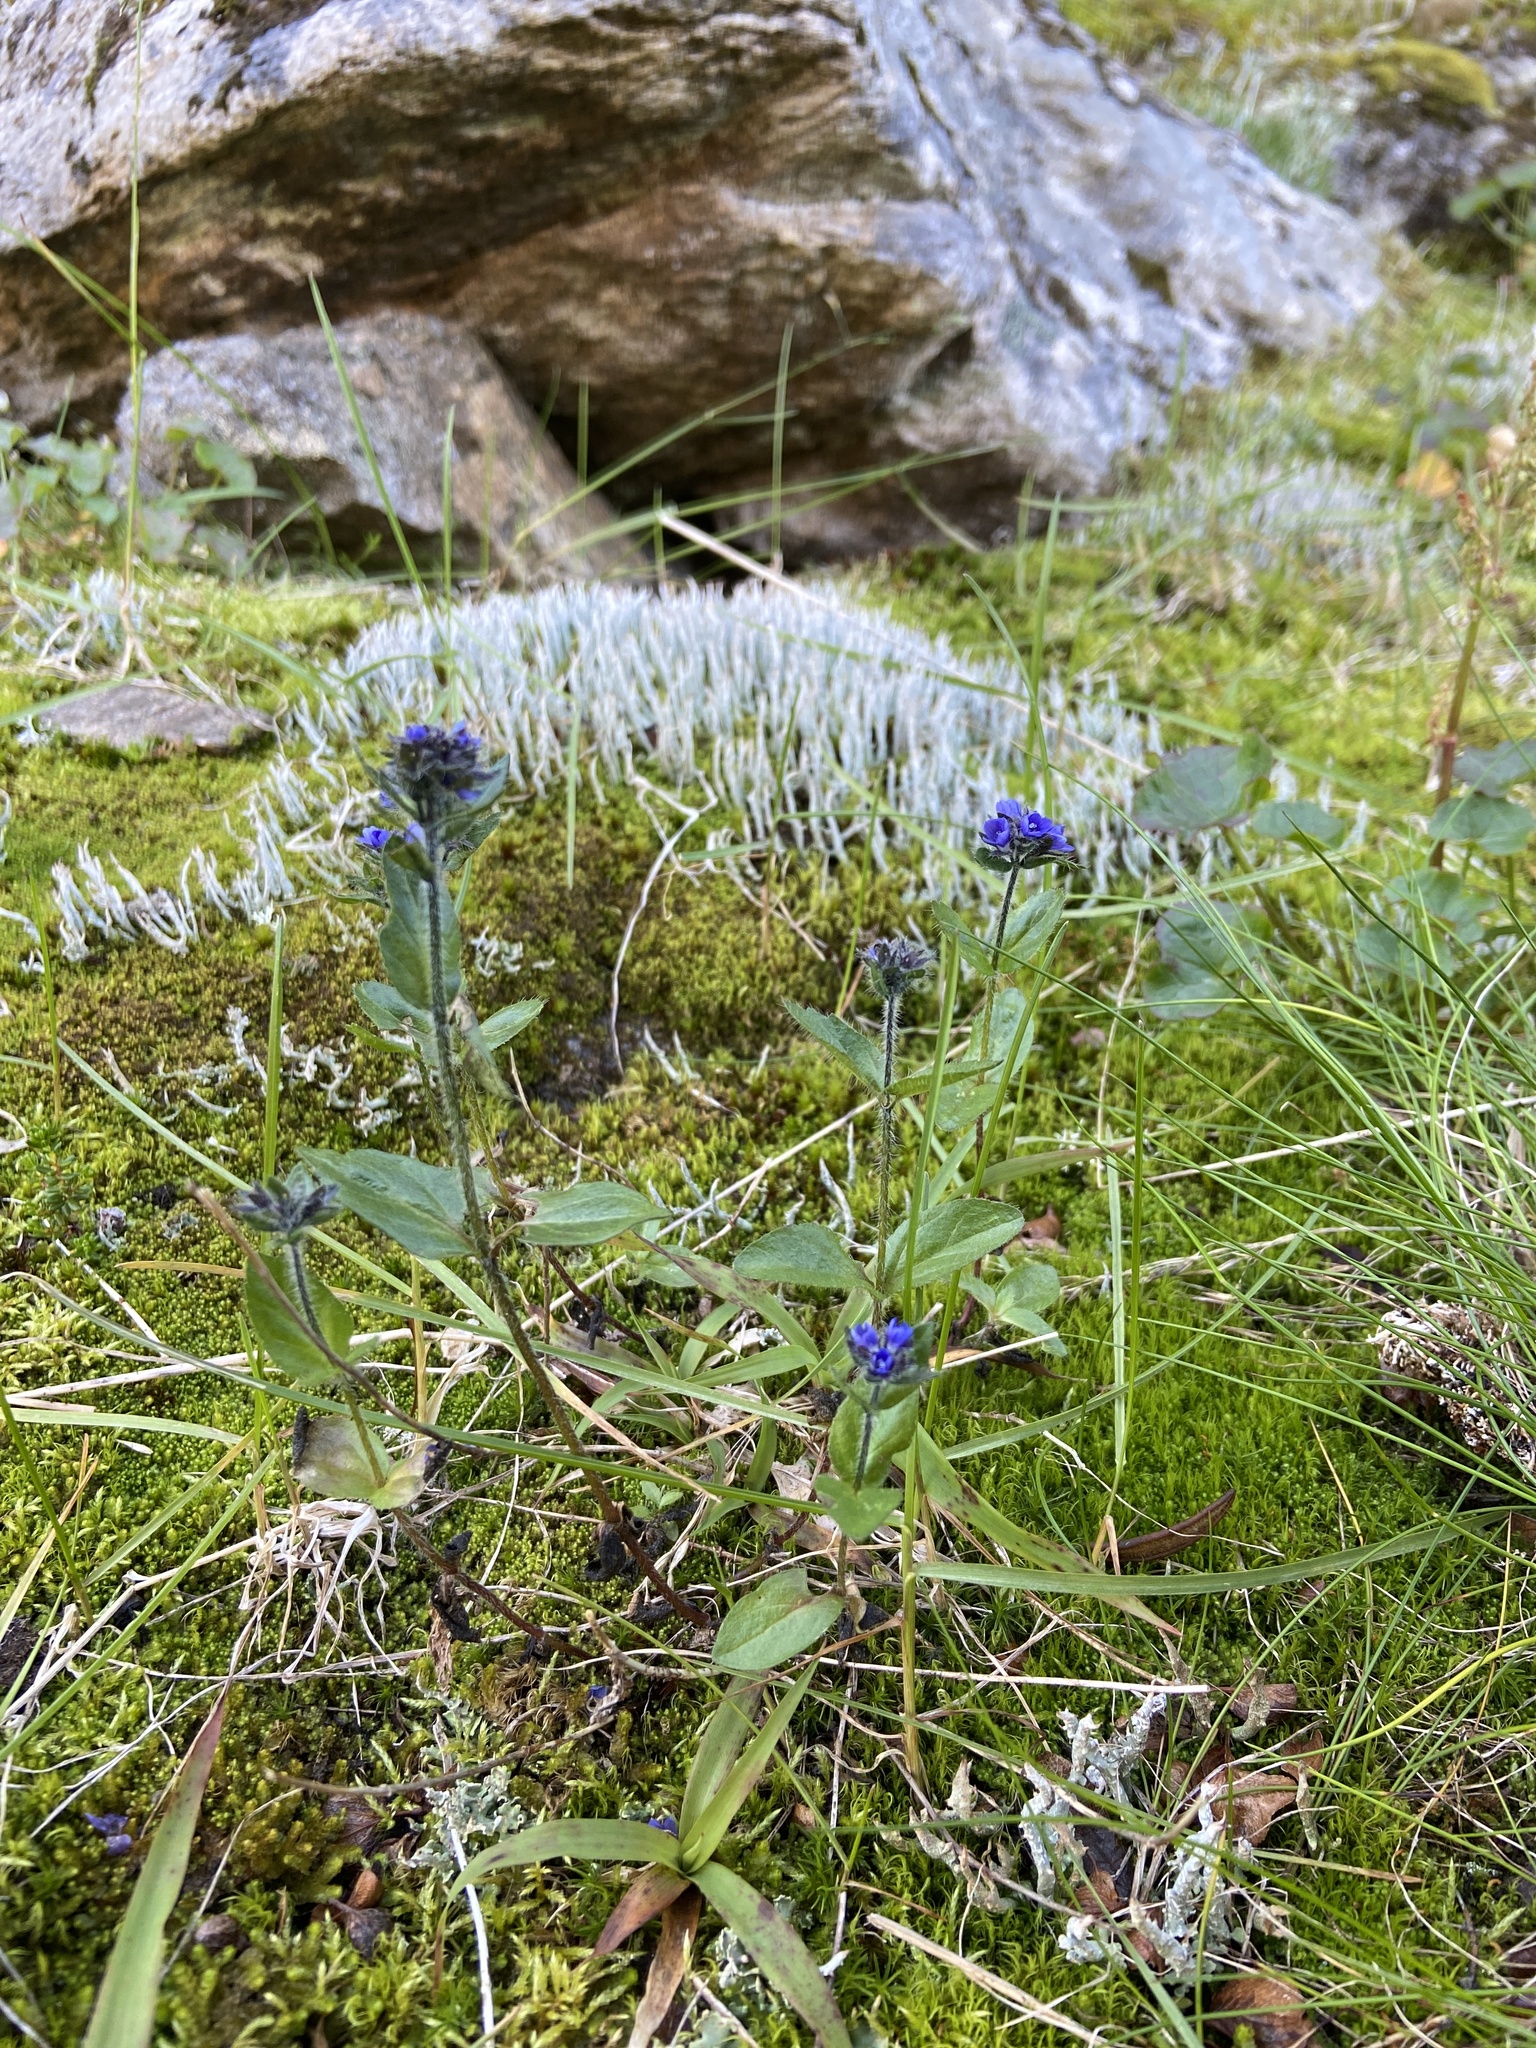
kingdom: Plantae
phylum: Tracheophyta
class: Magnoliopsida
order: Lamiales
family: Plantaginaceae
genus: Veronica
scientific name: Veronica wormskjoldii
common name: American alpine speedwell
